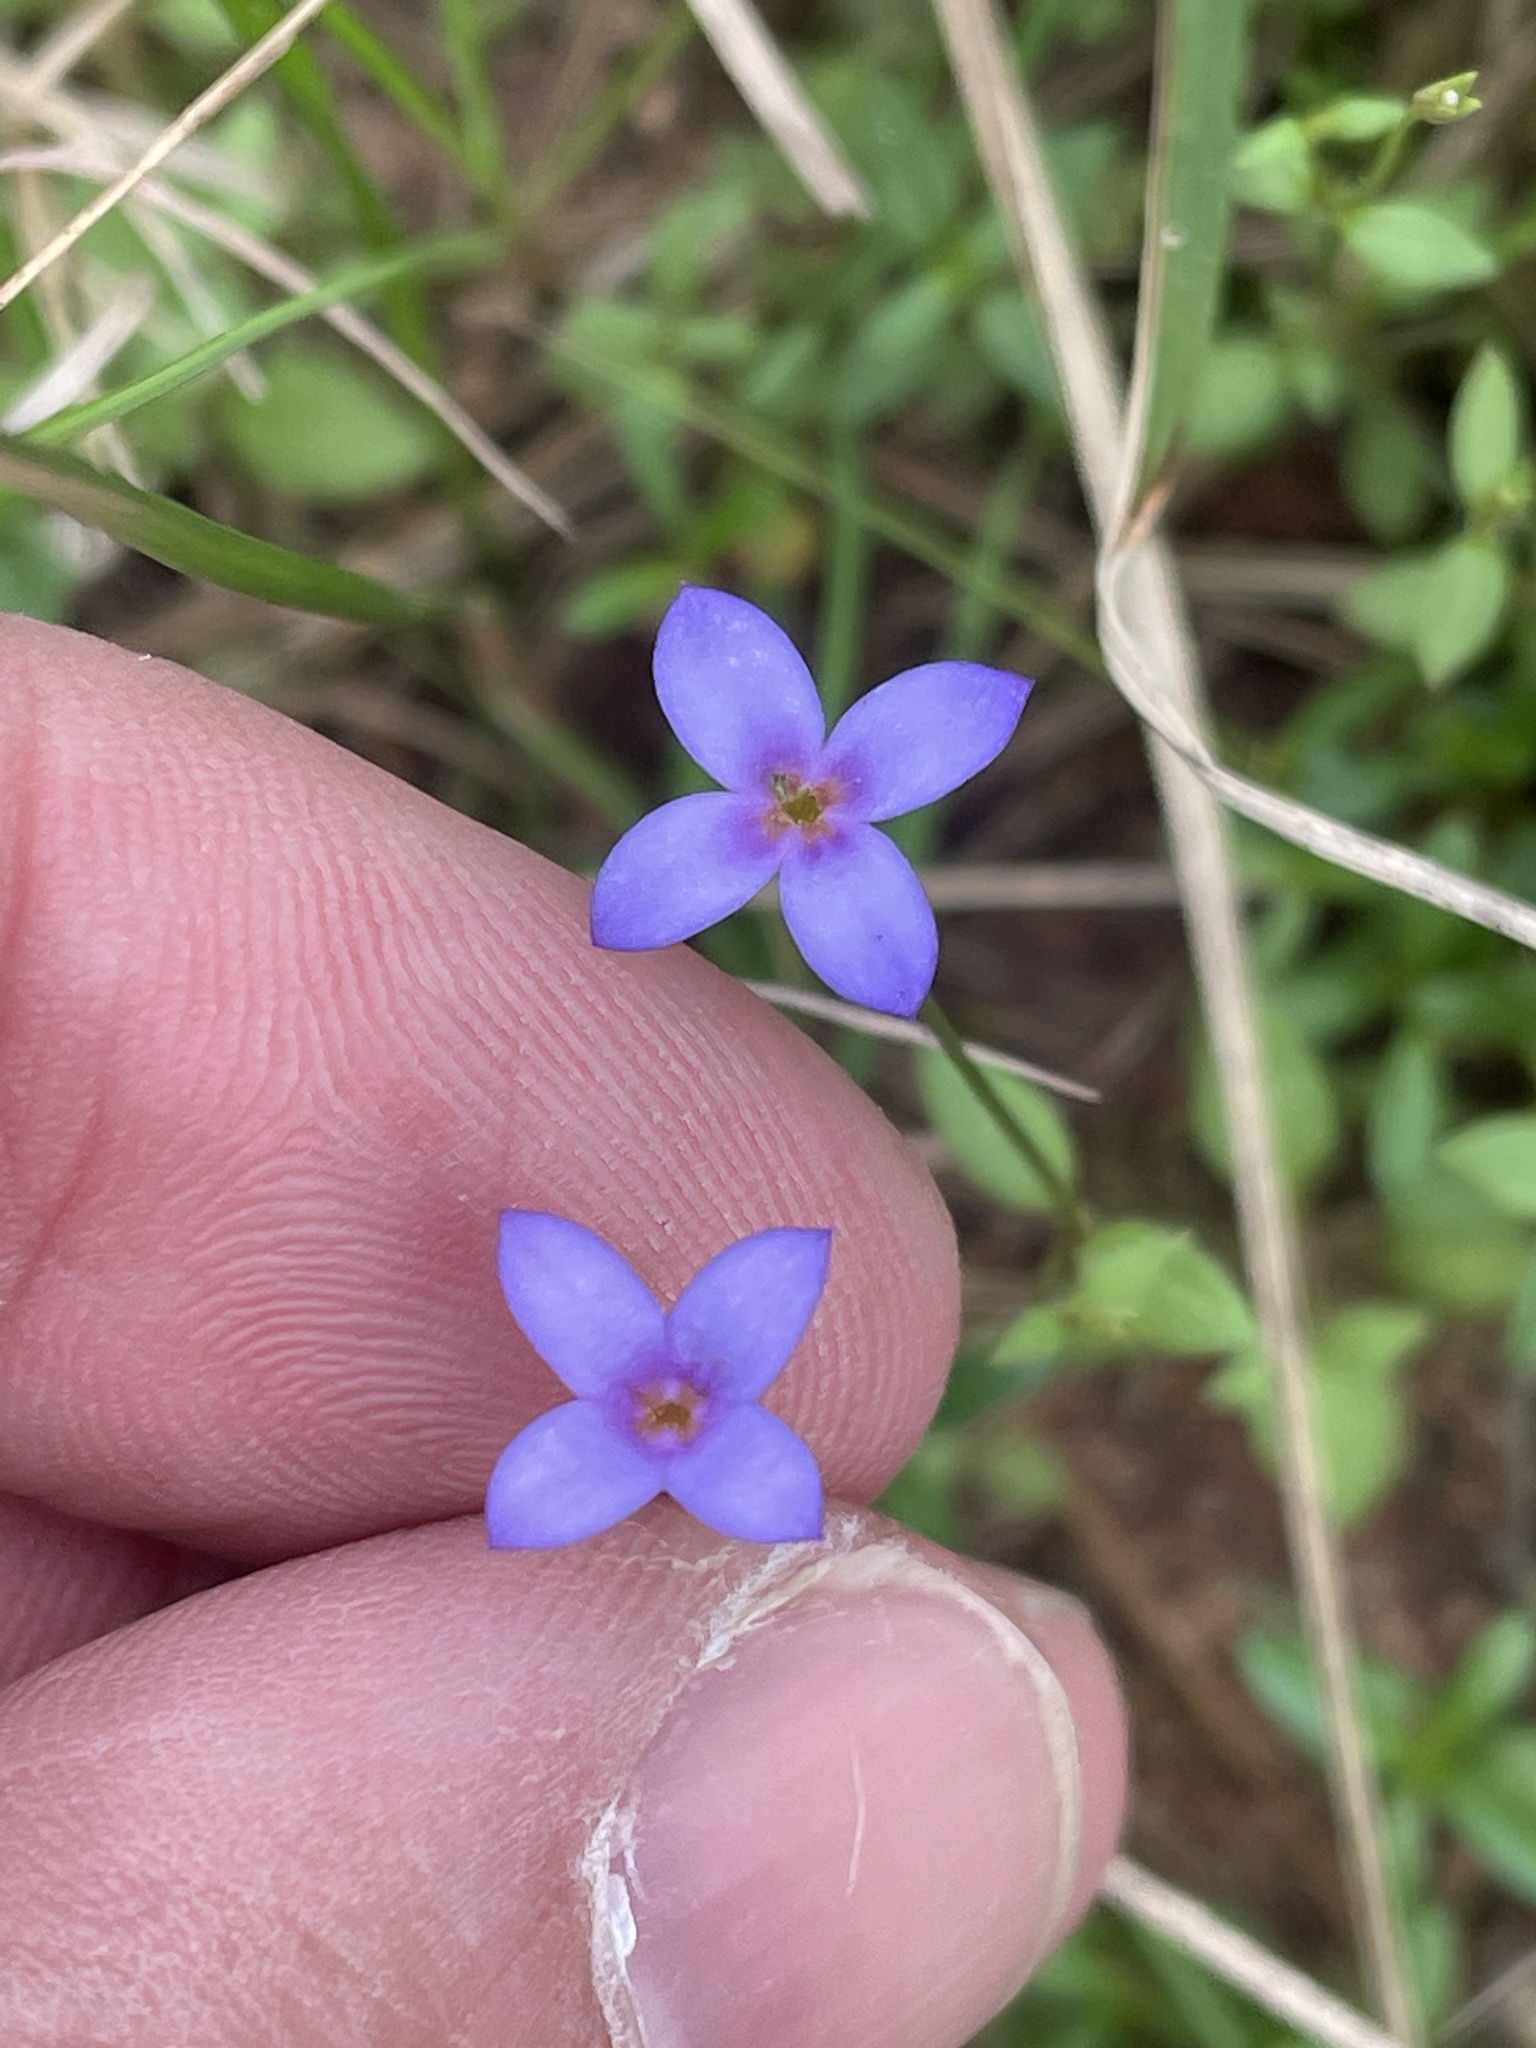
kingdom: Plantae
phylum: Tracheophyta
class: Magnoliopsida
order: Gentianales
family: Rubiaceae
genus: Houstonia
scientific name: Houstonia pusilla
